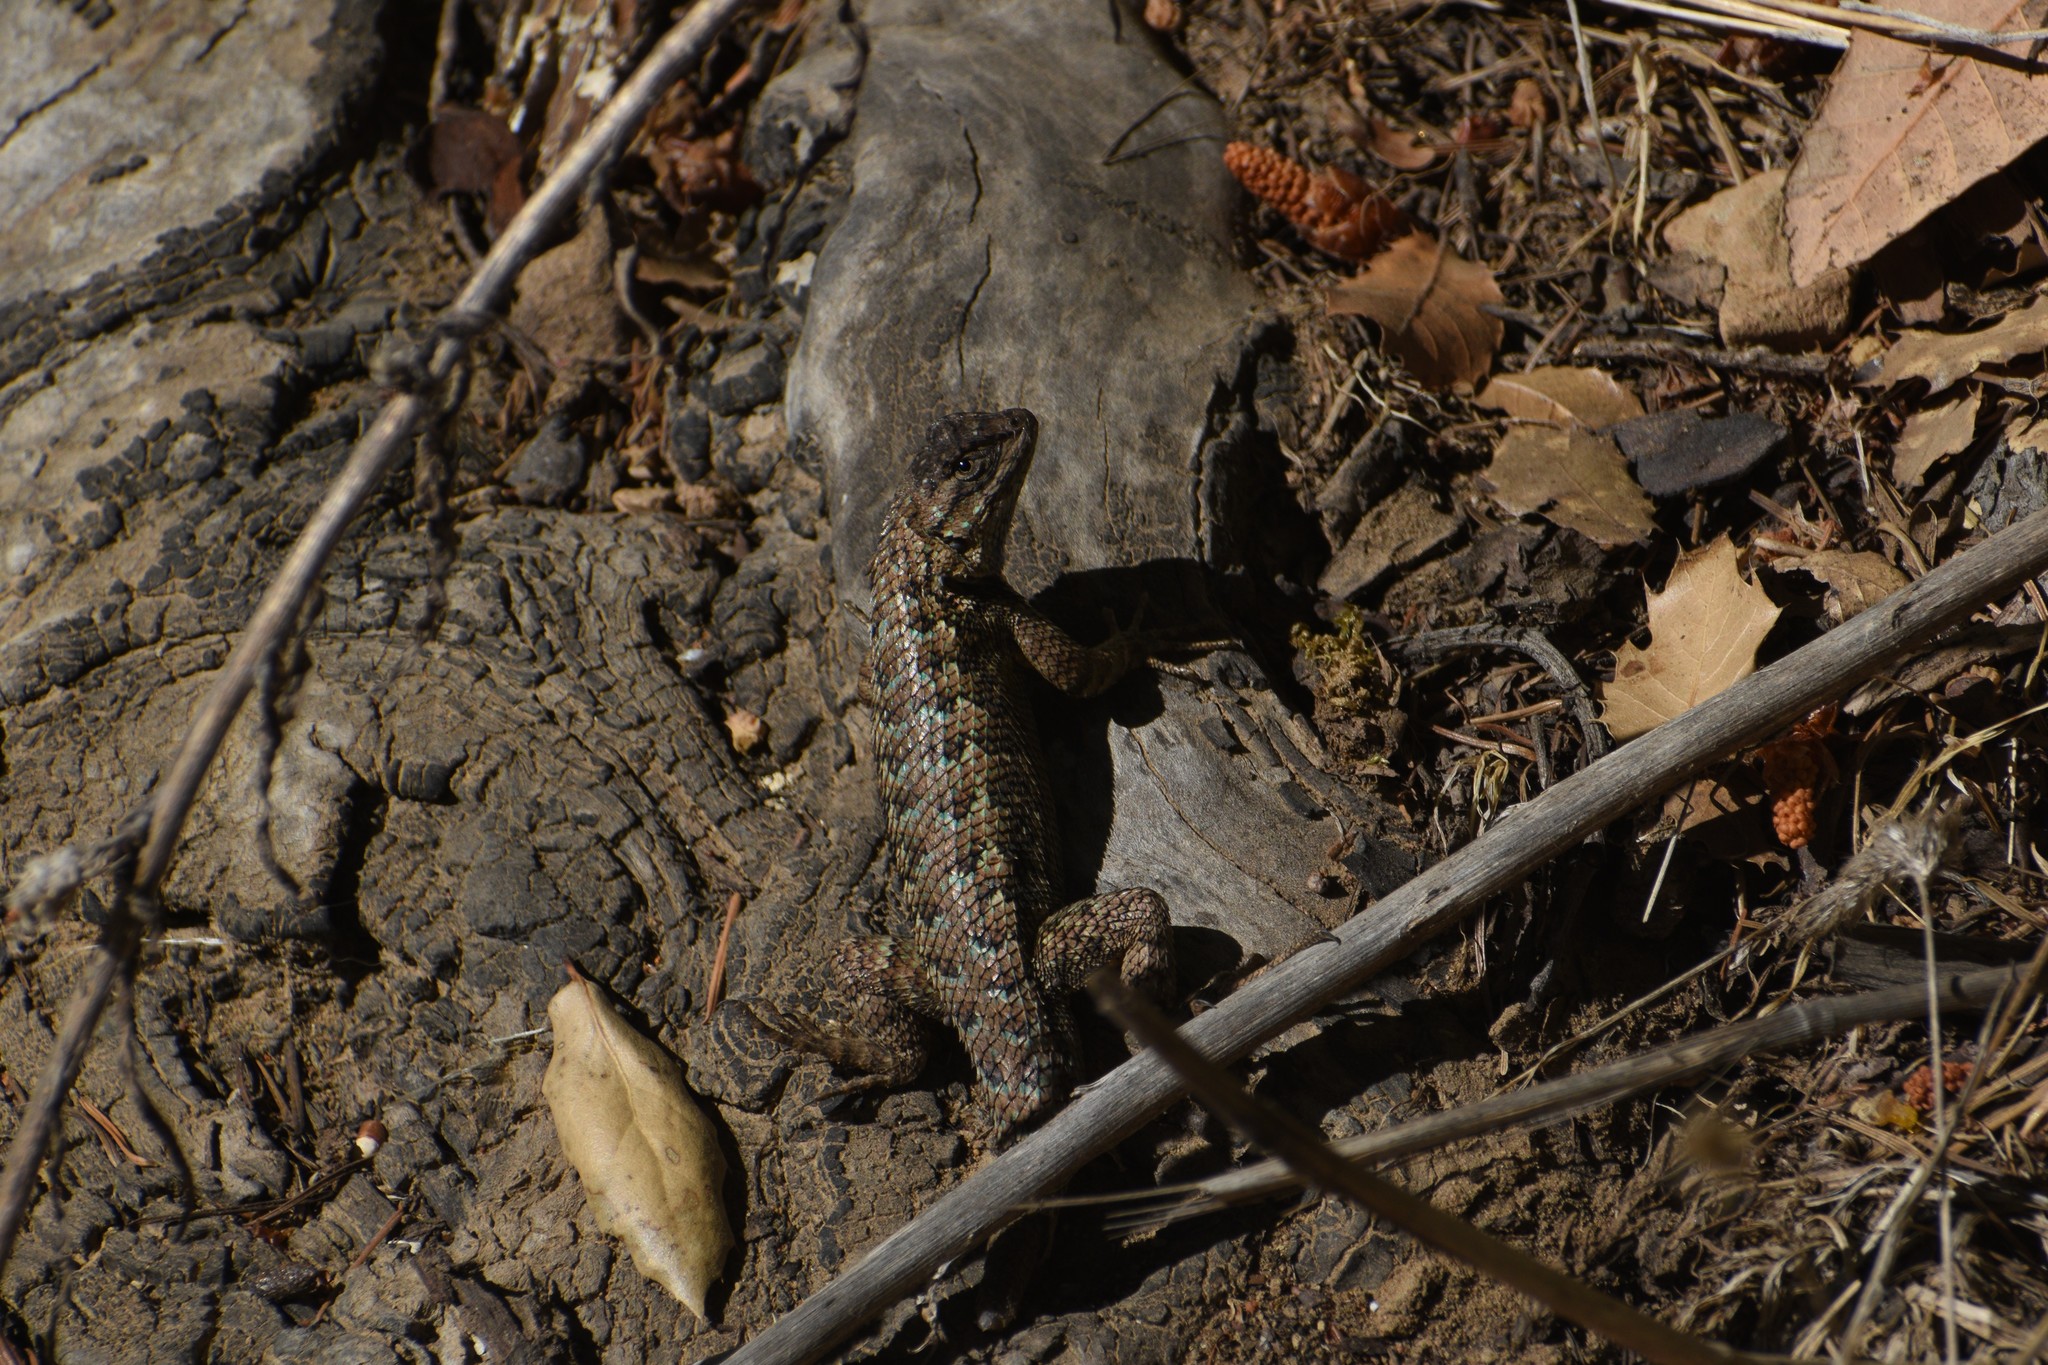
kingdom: Animalia
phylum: Chordata
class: Squamata
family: Phrynosomatidae
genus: Sceloporus
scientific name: Sceloporus occidentalis
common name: Western fence lizard
